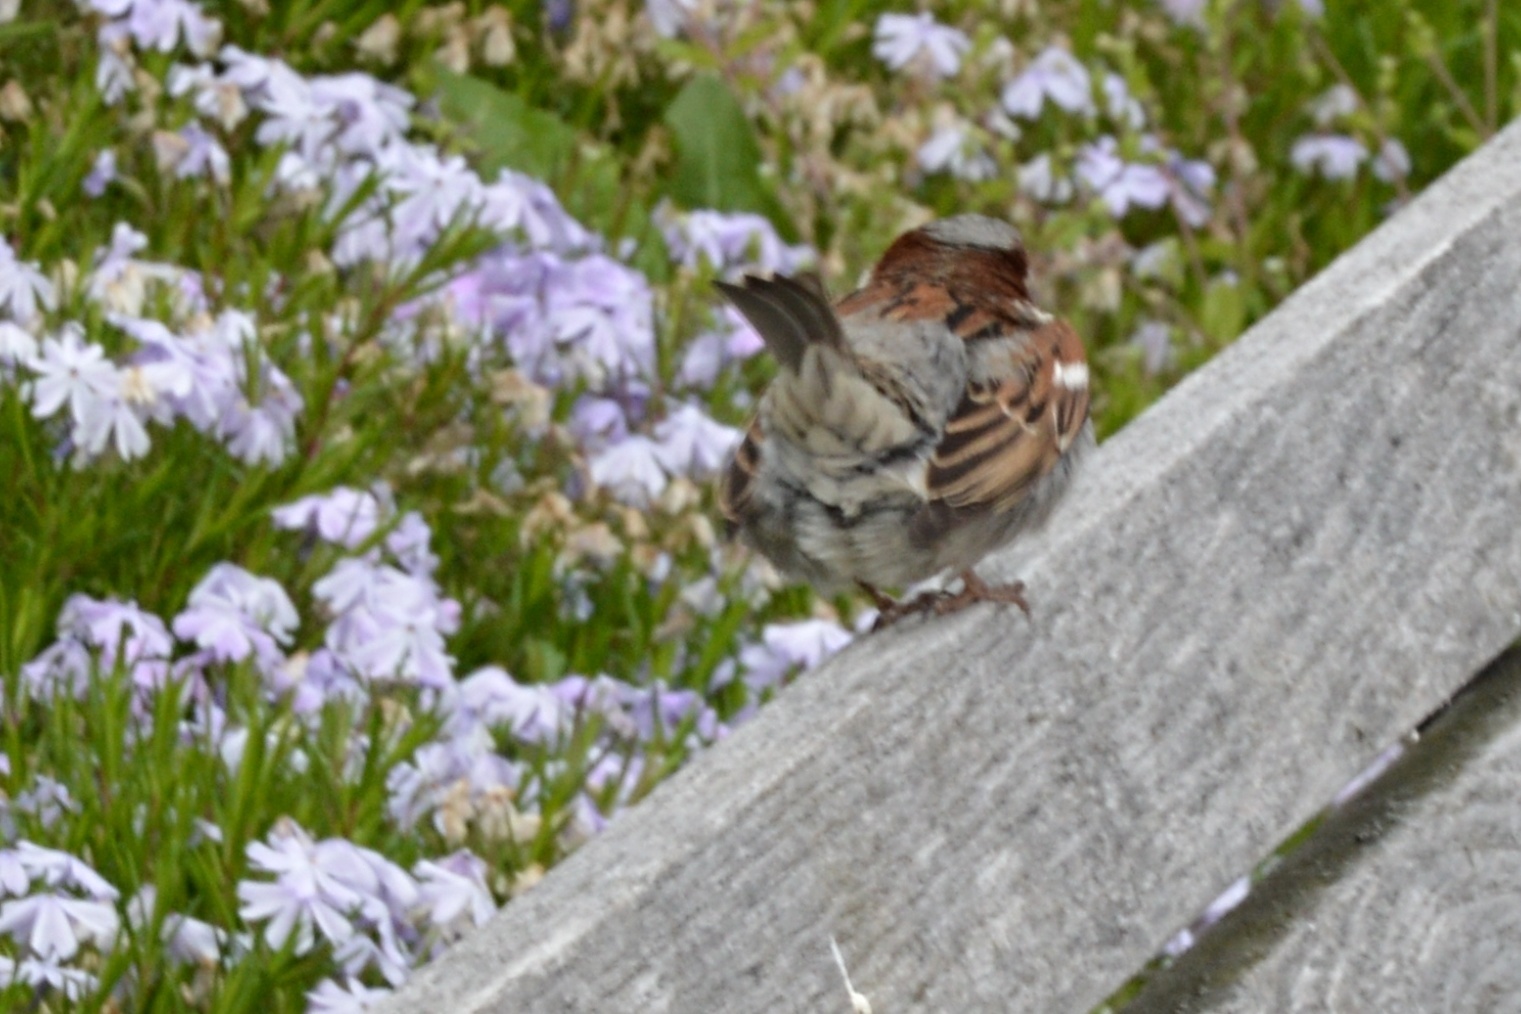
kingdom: Animalia
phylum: Chordata
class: Aves
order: Passeriformes
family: Passeridae
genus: Passer
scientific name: Passer domesticus
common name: House sparrow
